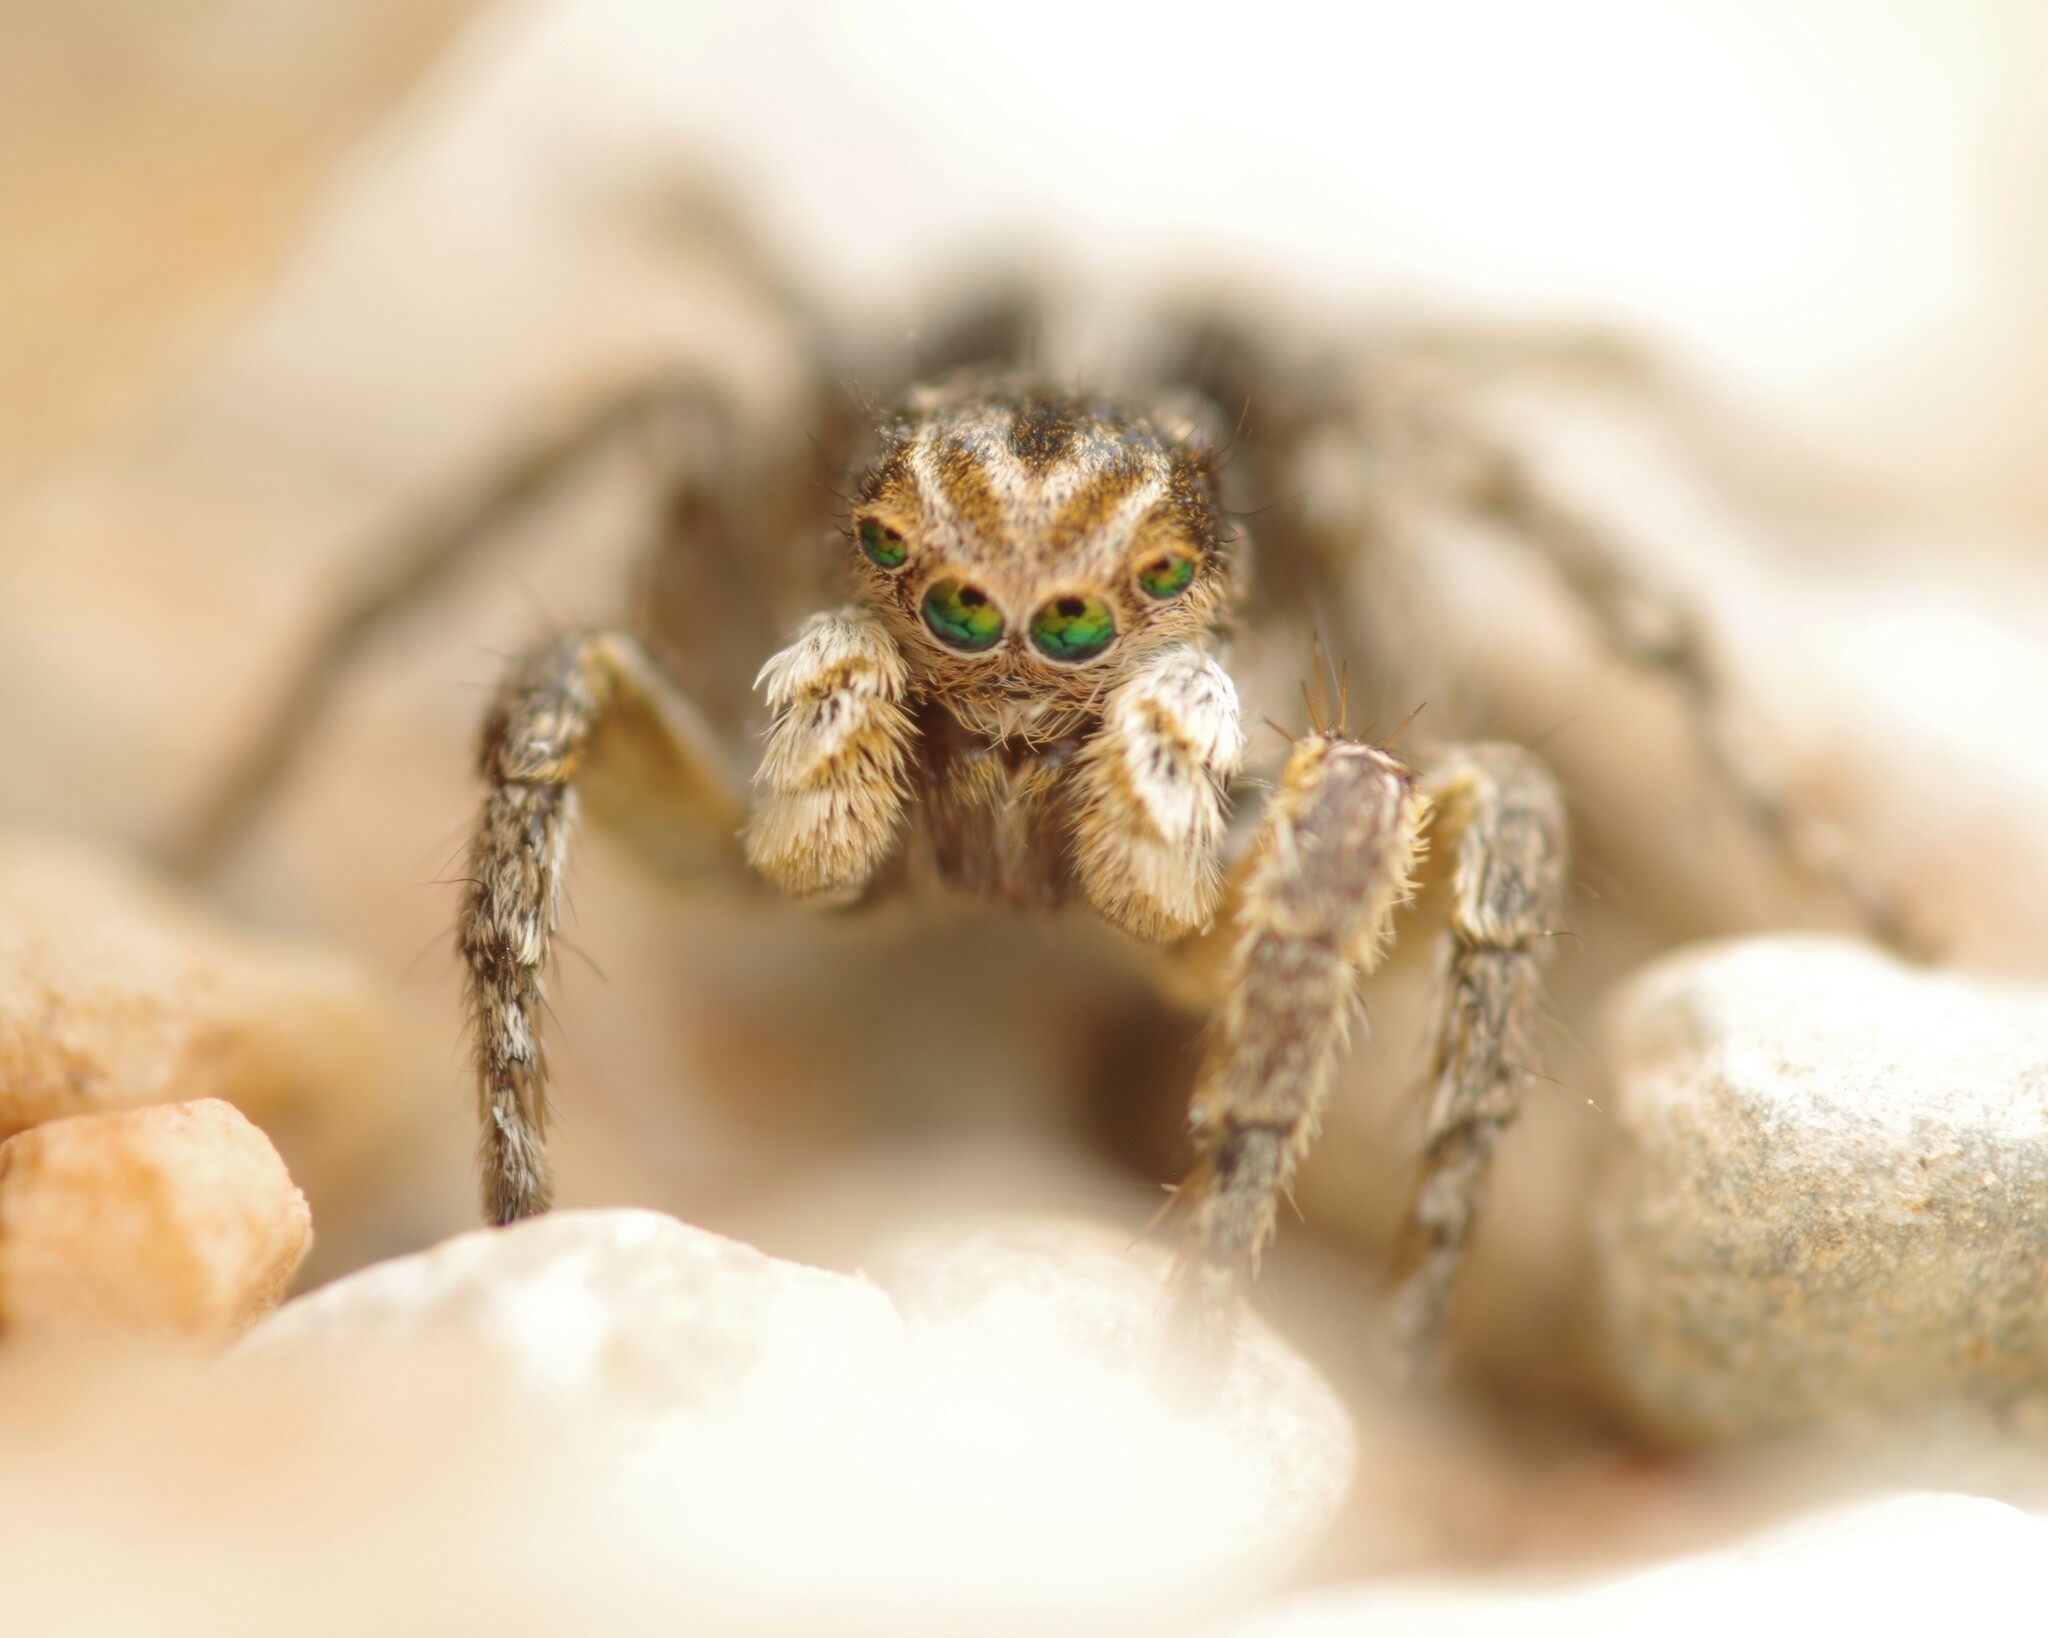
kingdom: Animalia
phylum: Arthropoda
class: Arachnida
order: Araneae
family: Salticidae
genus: Aelurillus
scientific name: Aelurillus v-insignitus
